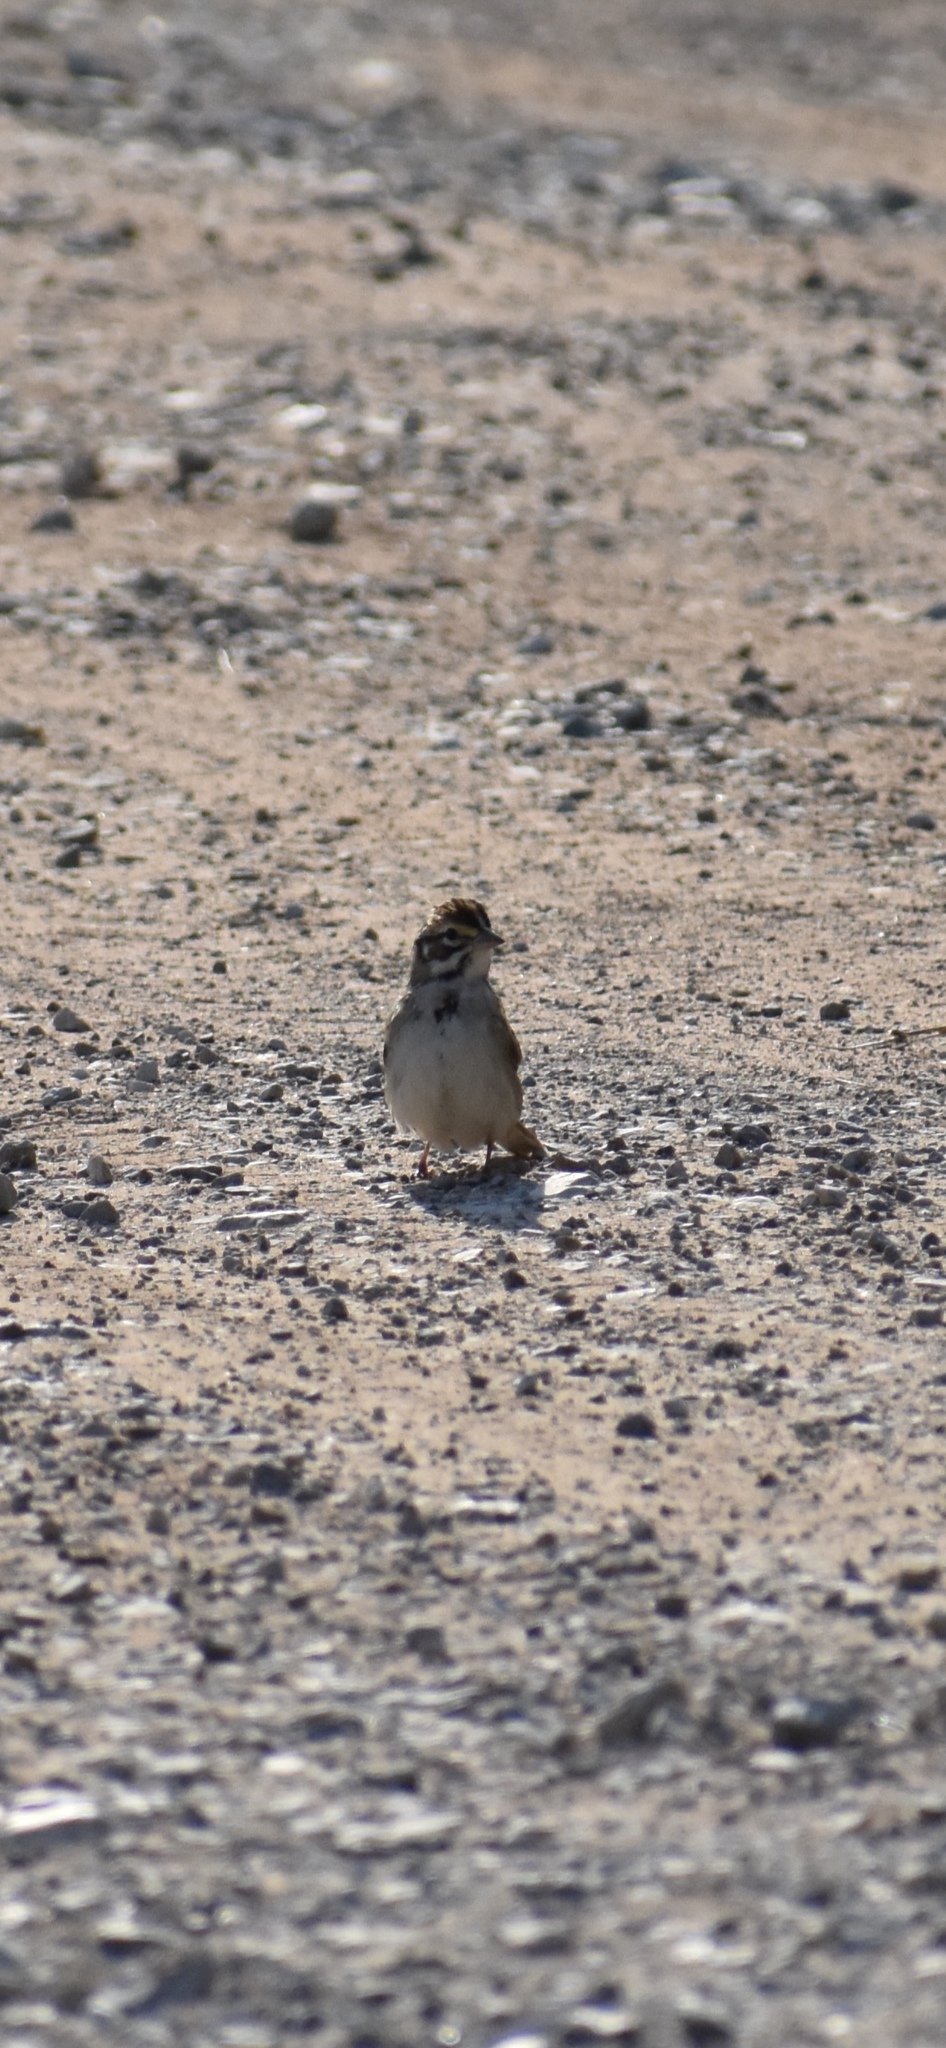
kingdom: Animalia
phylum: Chordata
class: Aves
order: Passeriformes
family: Passerellidae
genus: Chondestes
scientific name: Chondestes grammacus
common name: Lark sparrow
